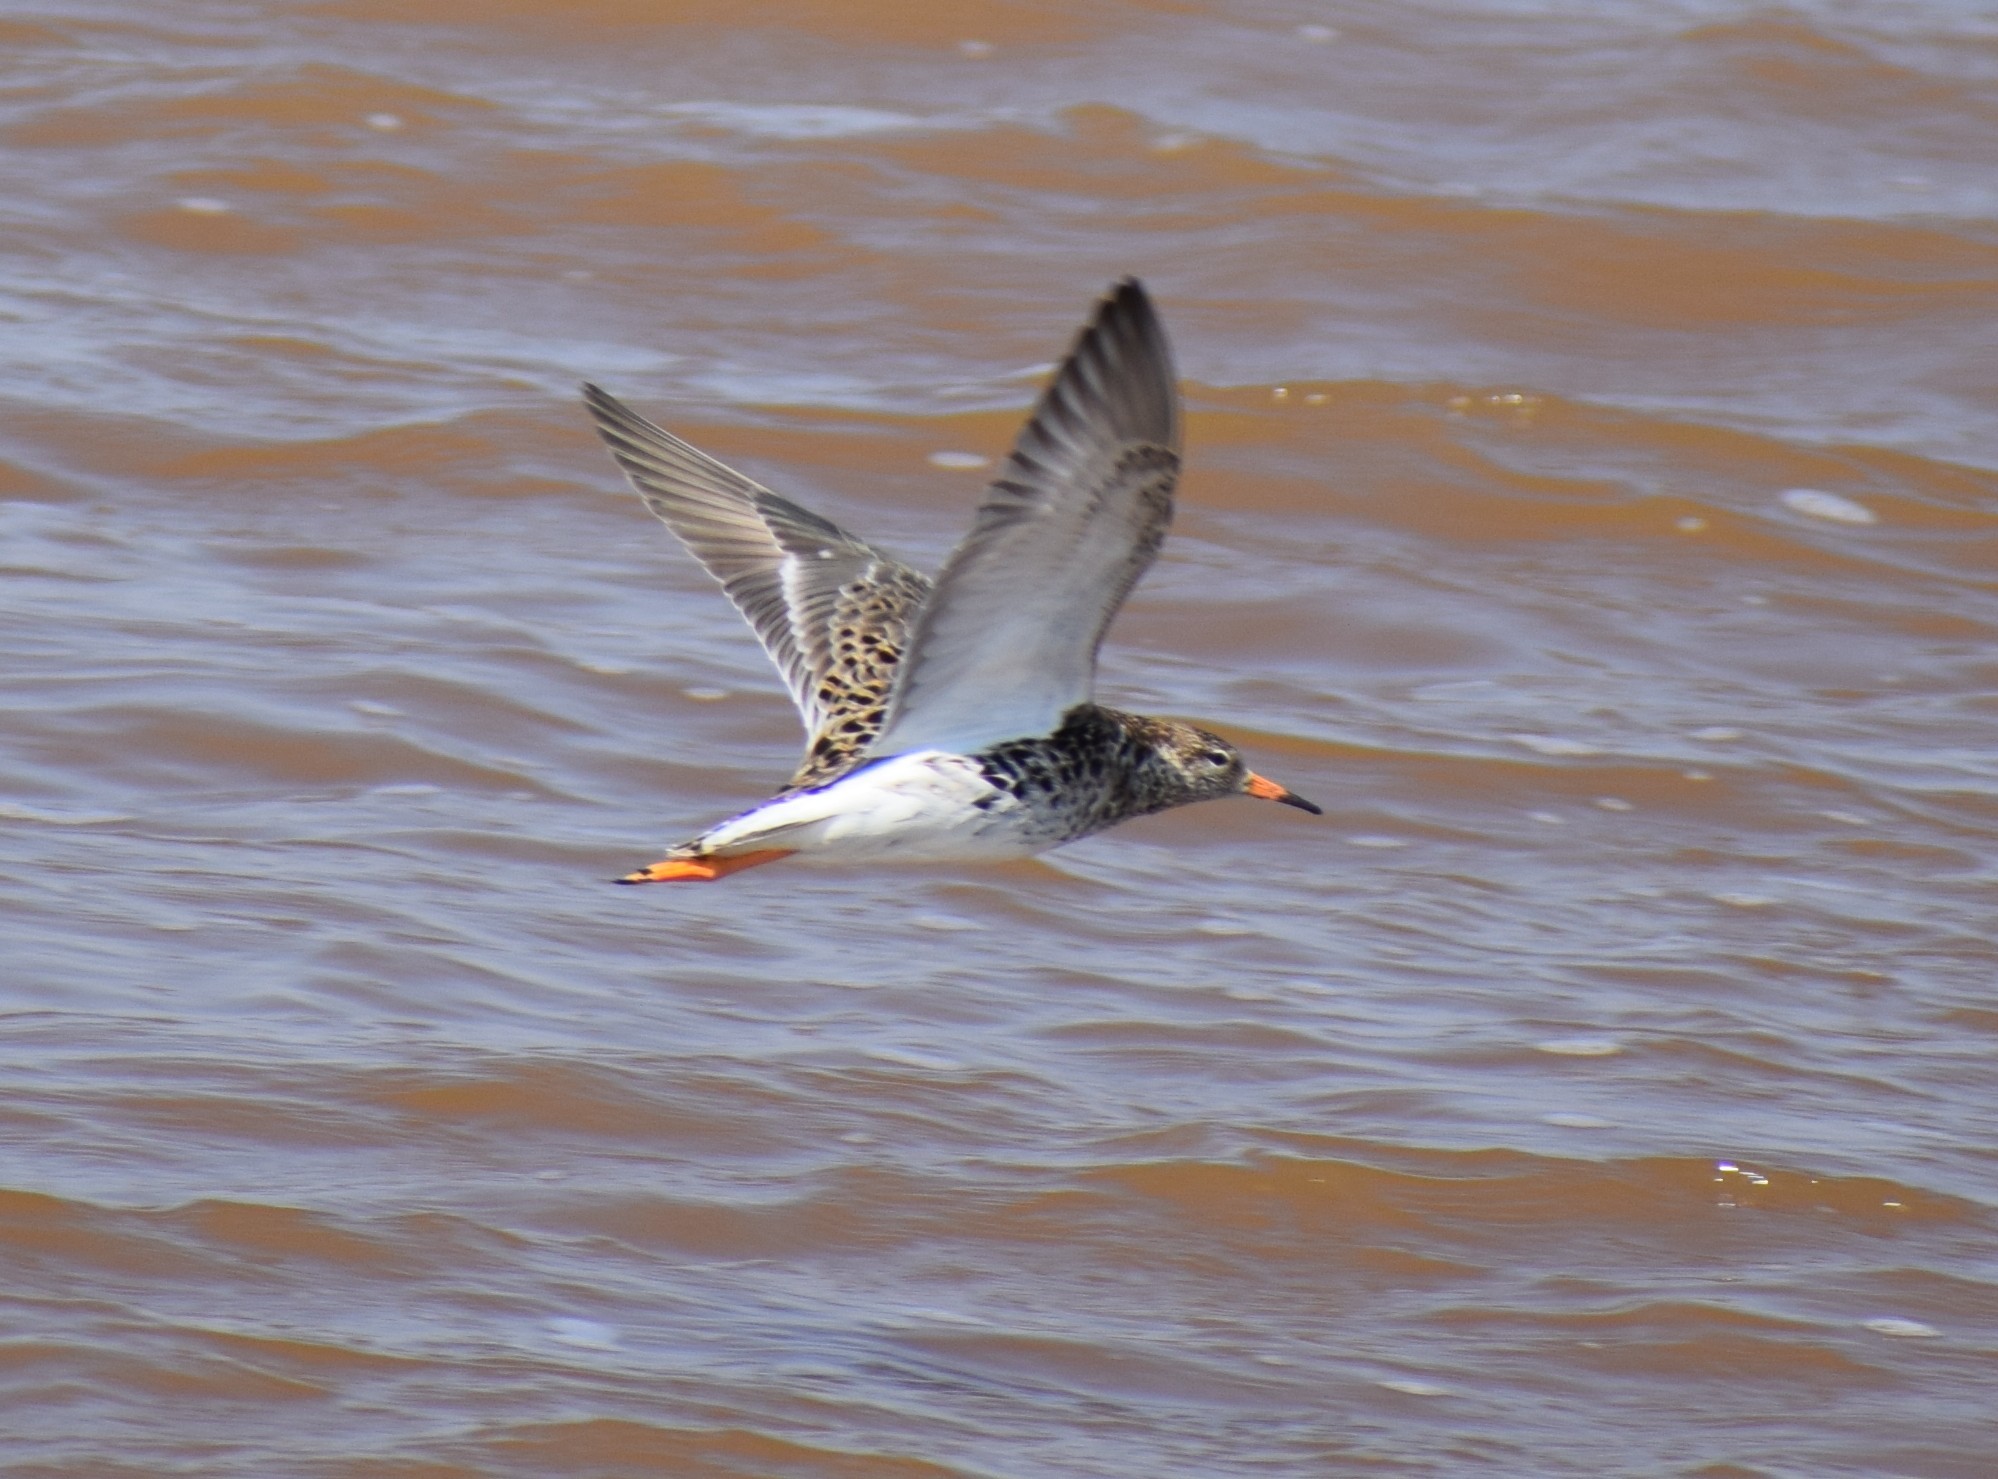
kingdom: Animalia
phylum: Chordata
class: Aves
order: Charadriiformes
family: Scolopacidae
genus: Calidris
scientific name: Calidris pugnax
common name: Ruff
